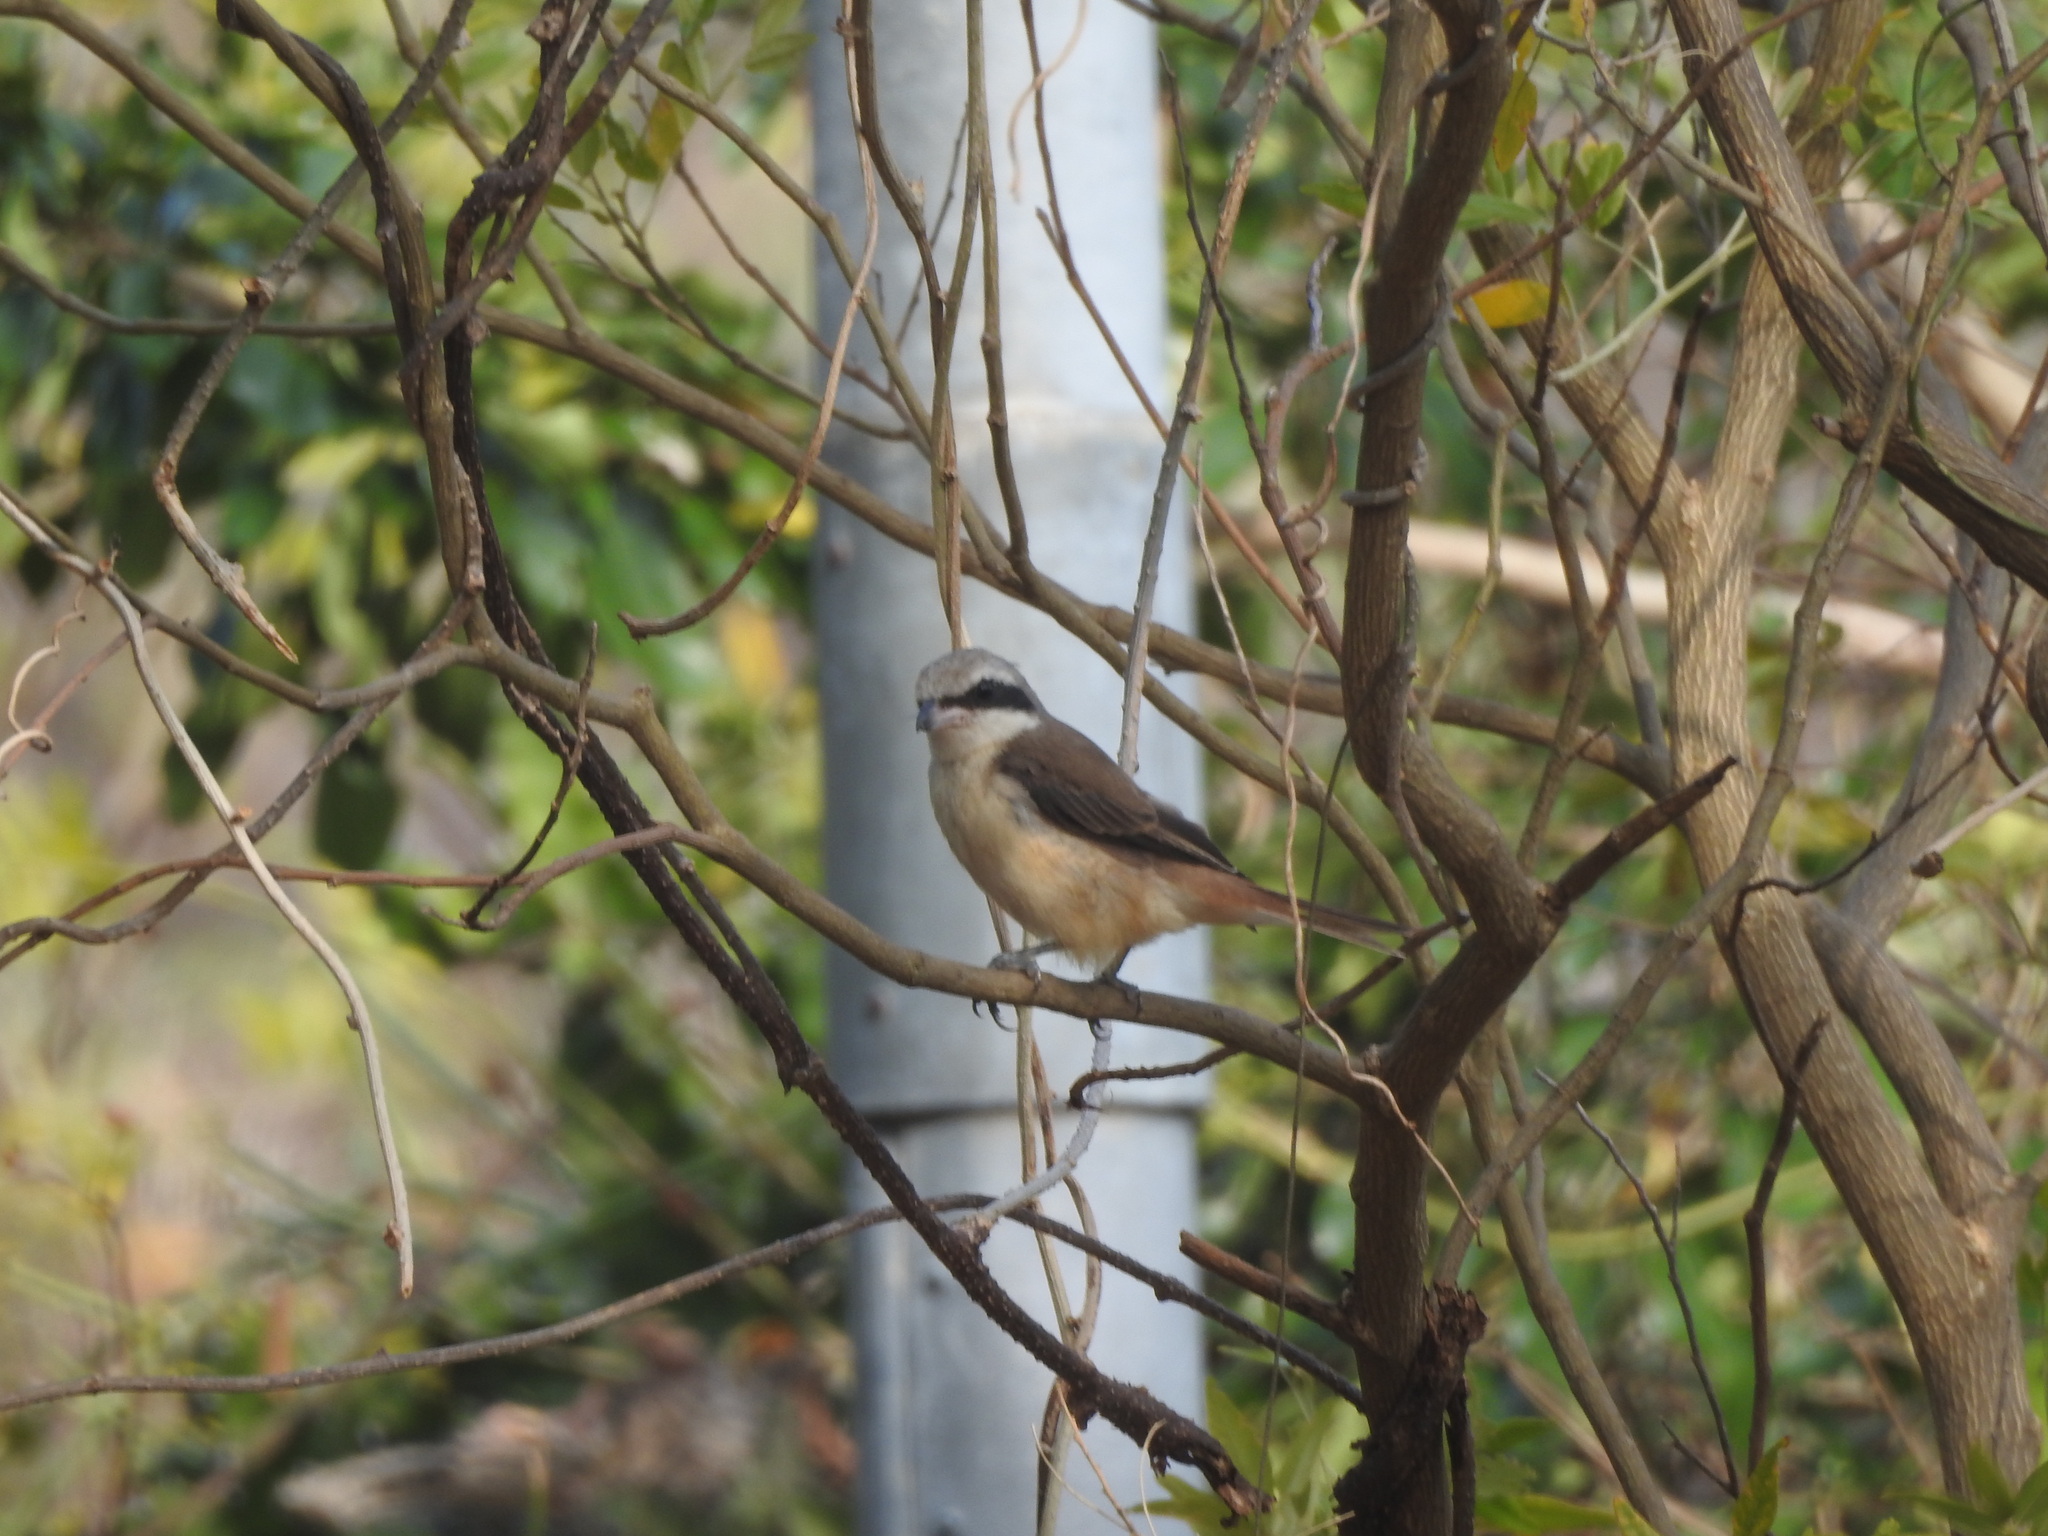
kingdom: Animalia
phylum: Chordata
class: Aves
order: Passeriformes
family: Laniidae
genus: Lanius
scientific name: Lanius cristatus
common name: Brown shrike
